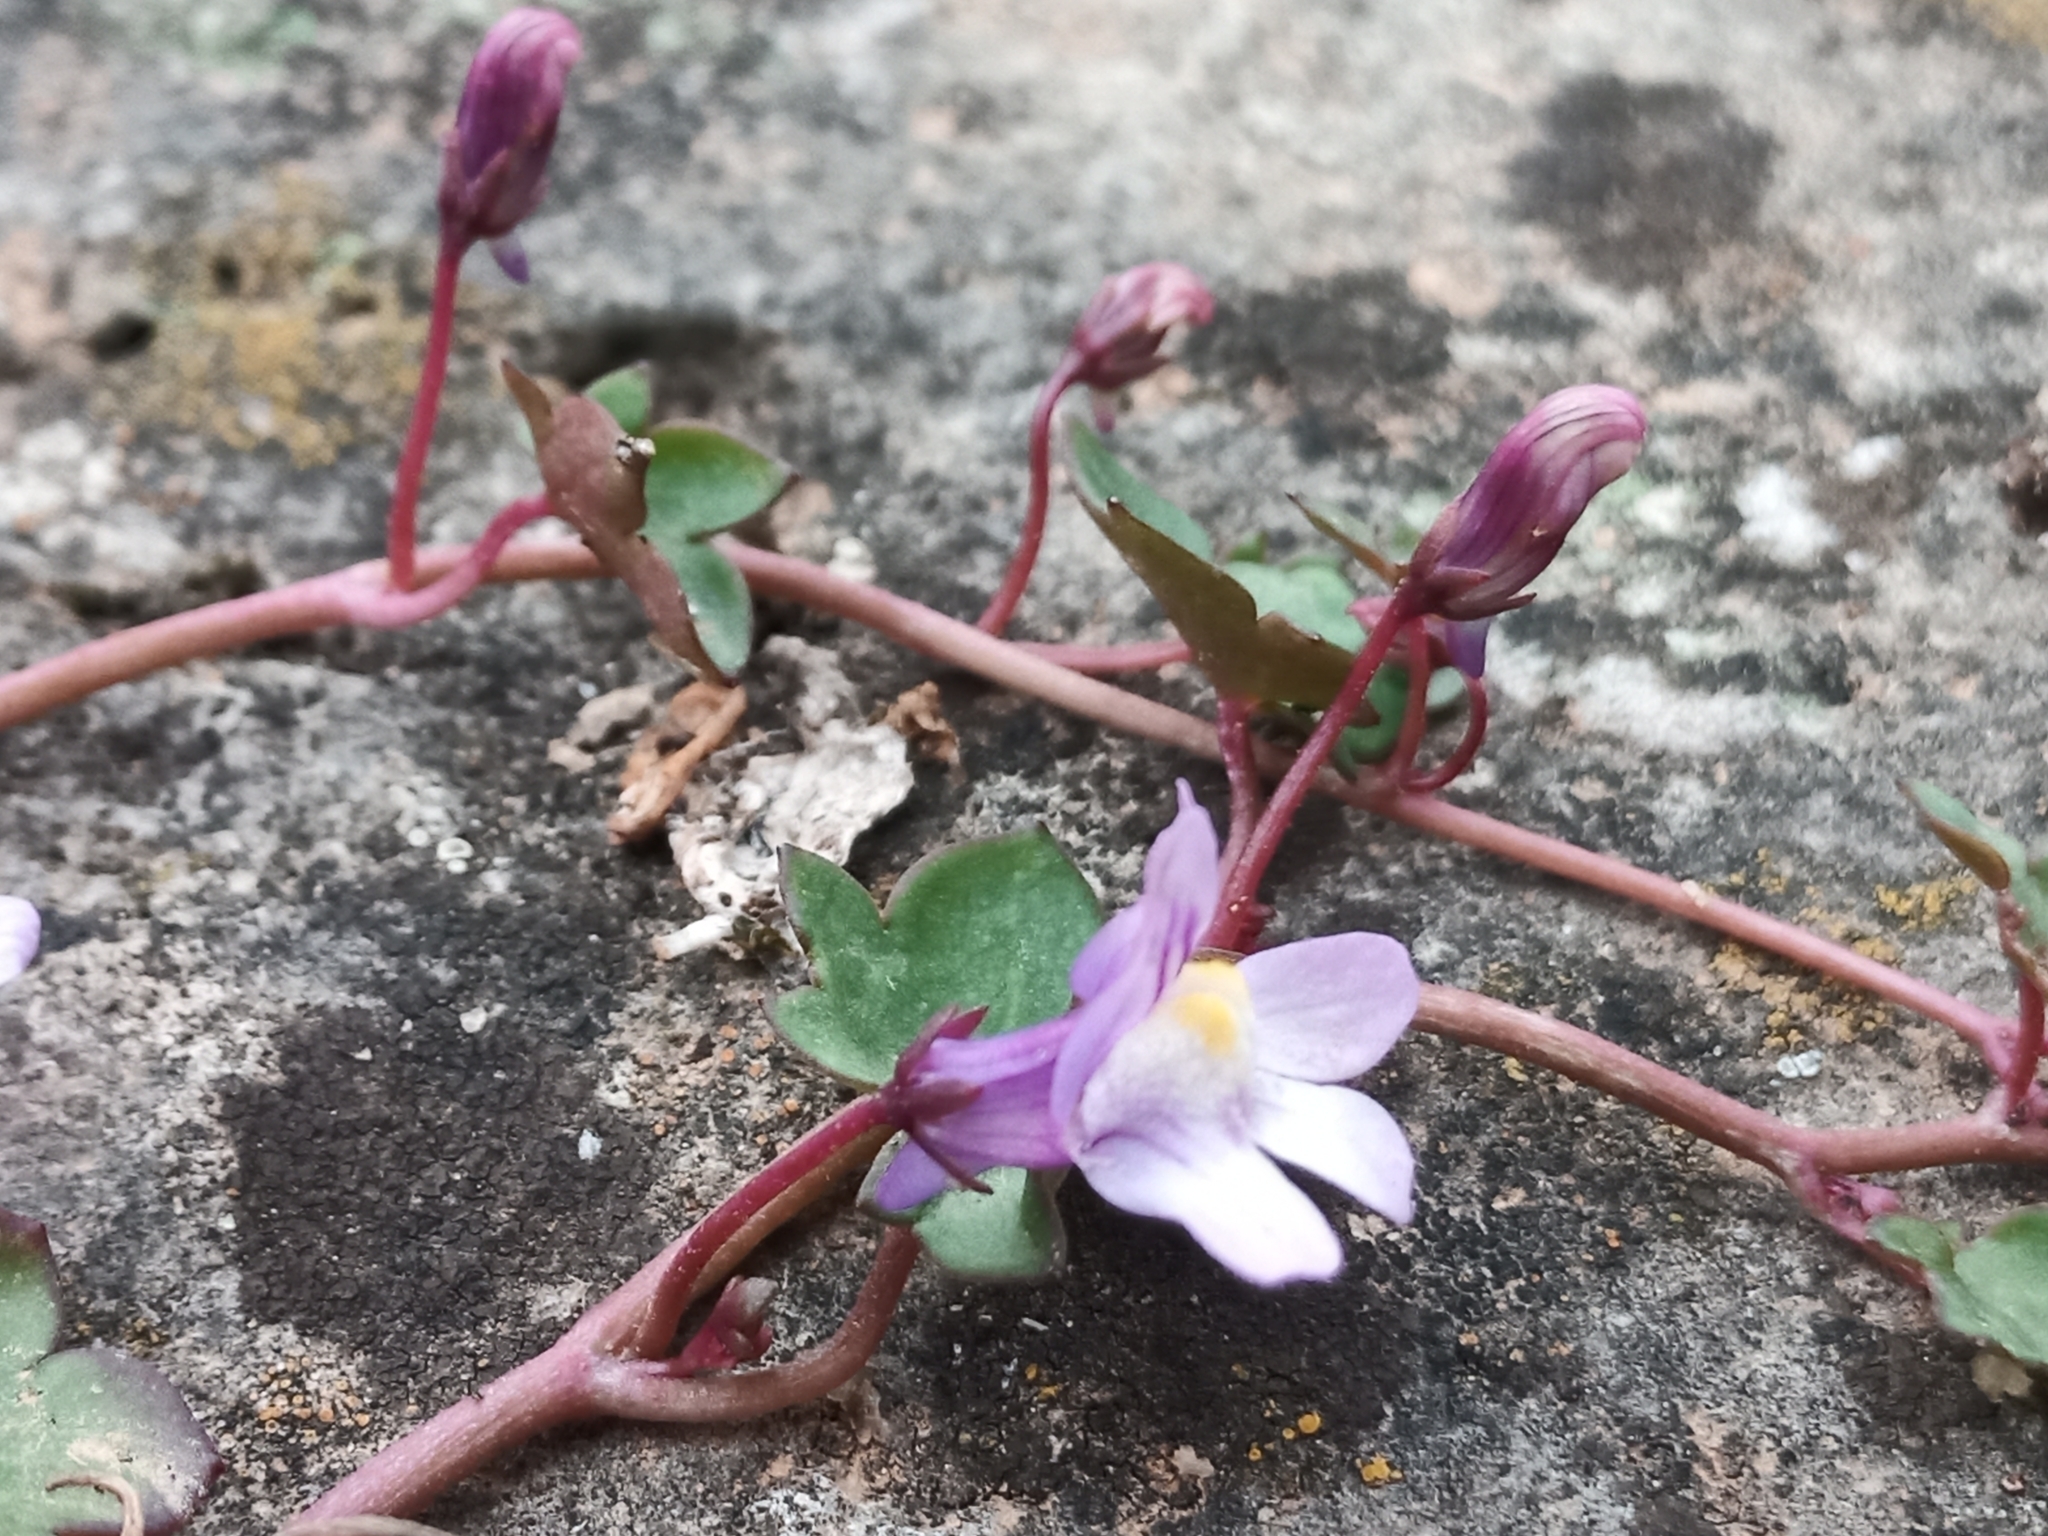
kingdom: Plantae
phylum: Tracheophyta
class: Magnoliopsida
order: Lamiales
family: Plantaginaceae
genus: Cymbalaria
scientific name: Cymbalaria muralis
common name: Ivy-leaved toadflax
